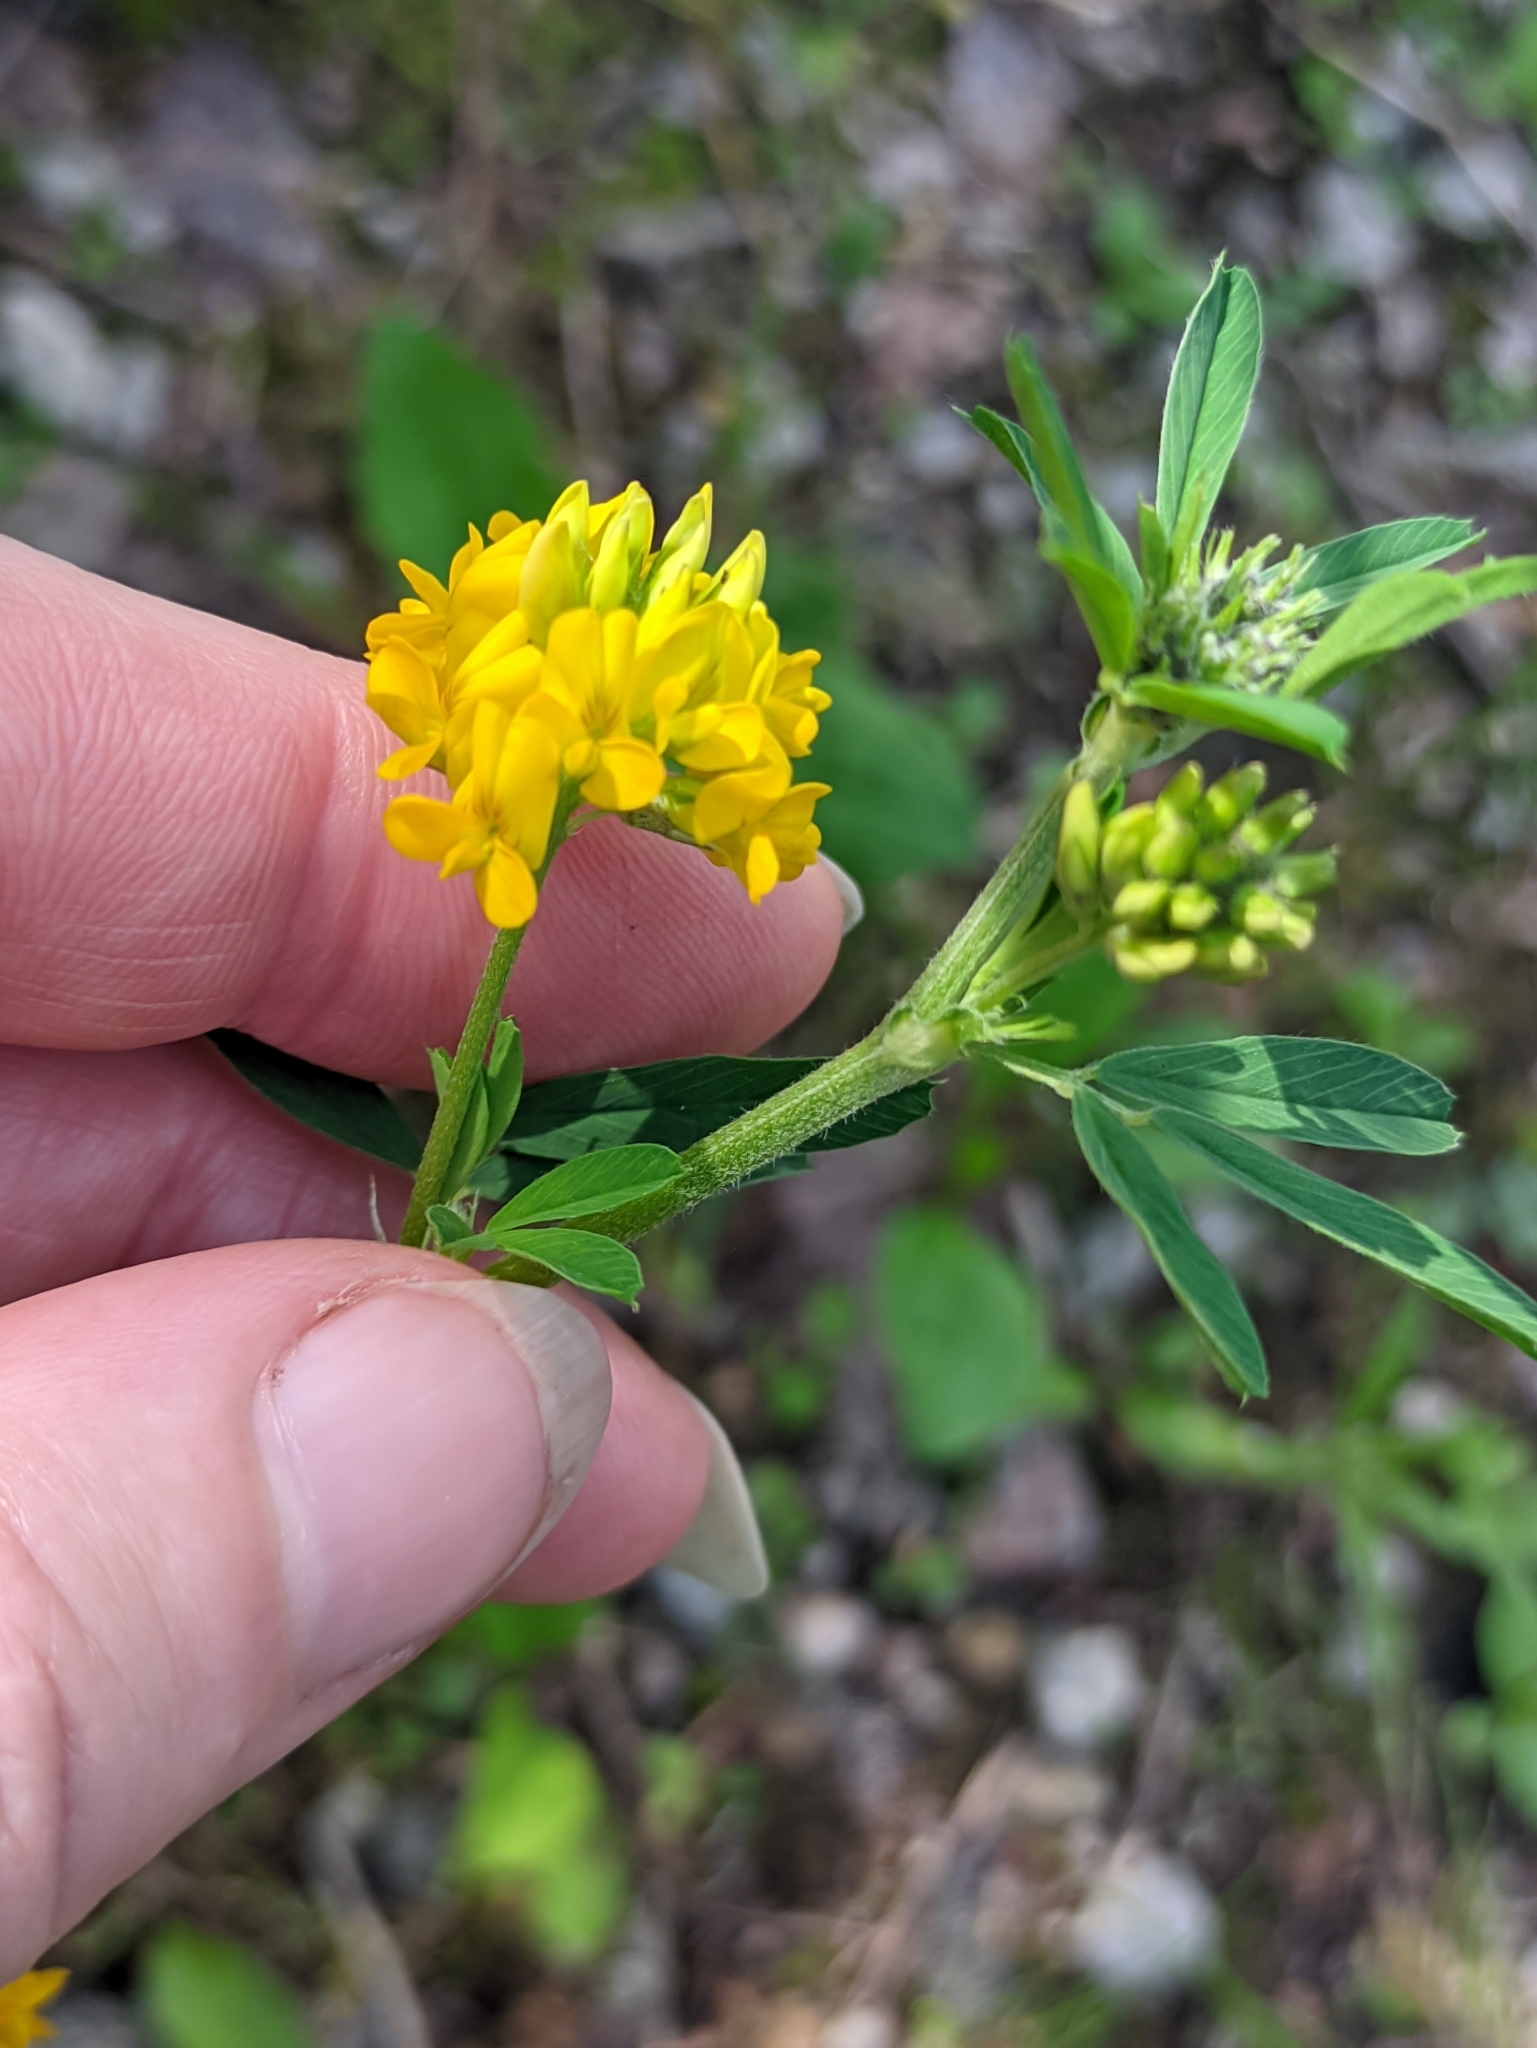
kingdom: Plantae
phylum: Tracheophyta
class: Magnoliopsida
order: Fabales
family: Fabaceae
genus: Medicago
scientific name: Medicago falcata
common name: Sickle medick
